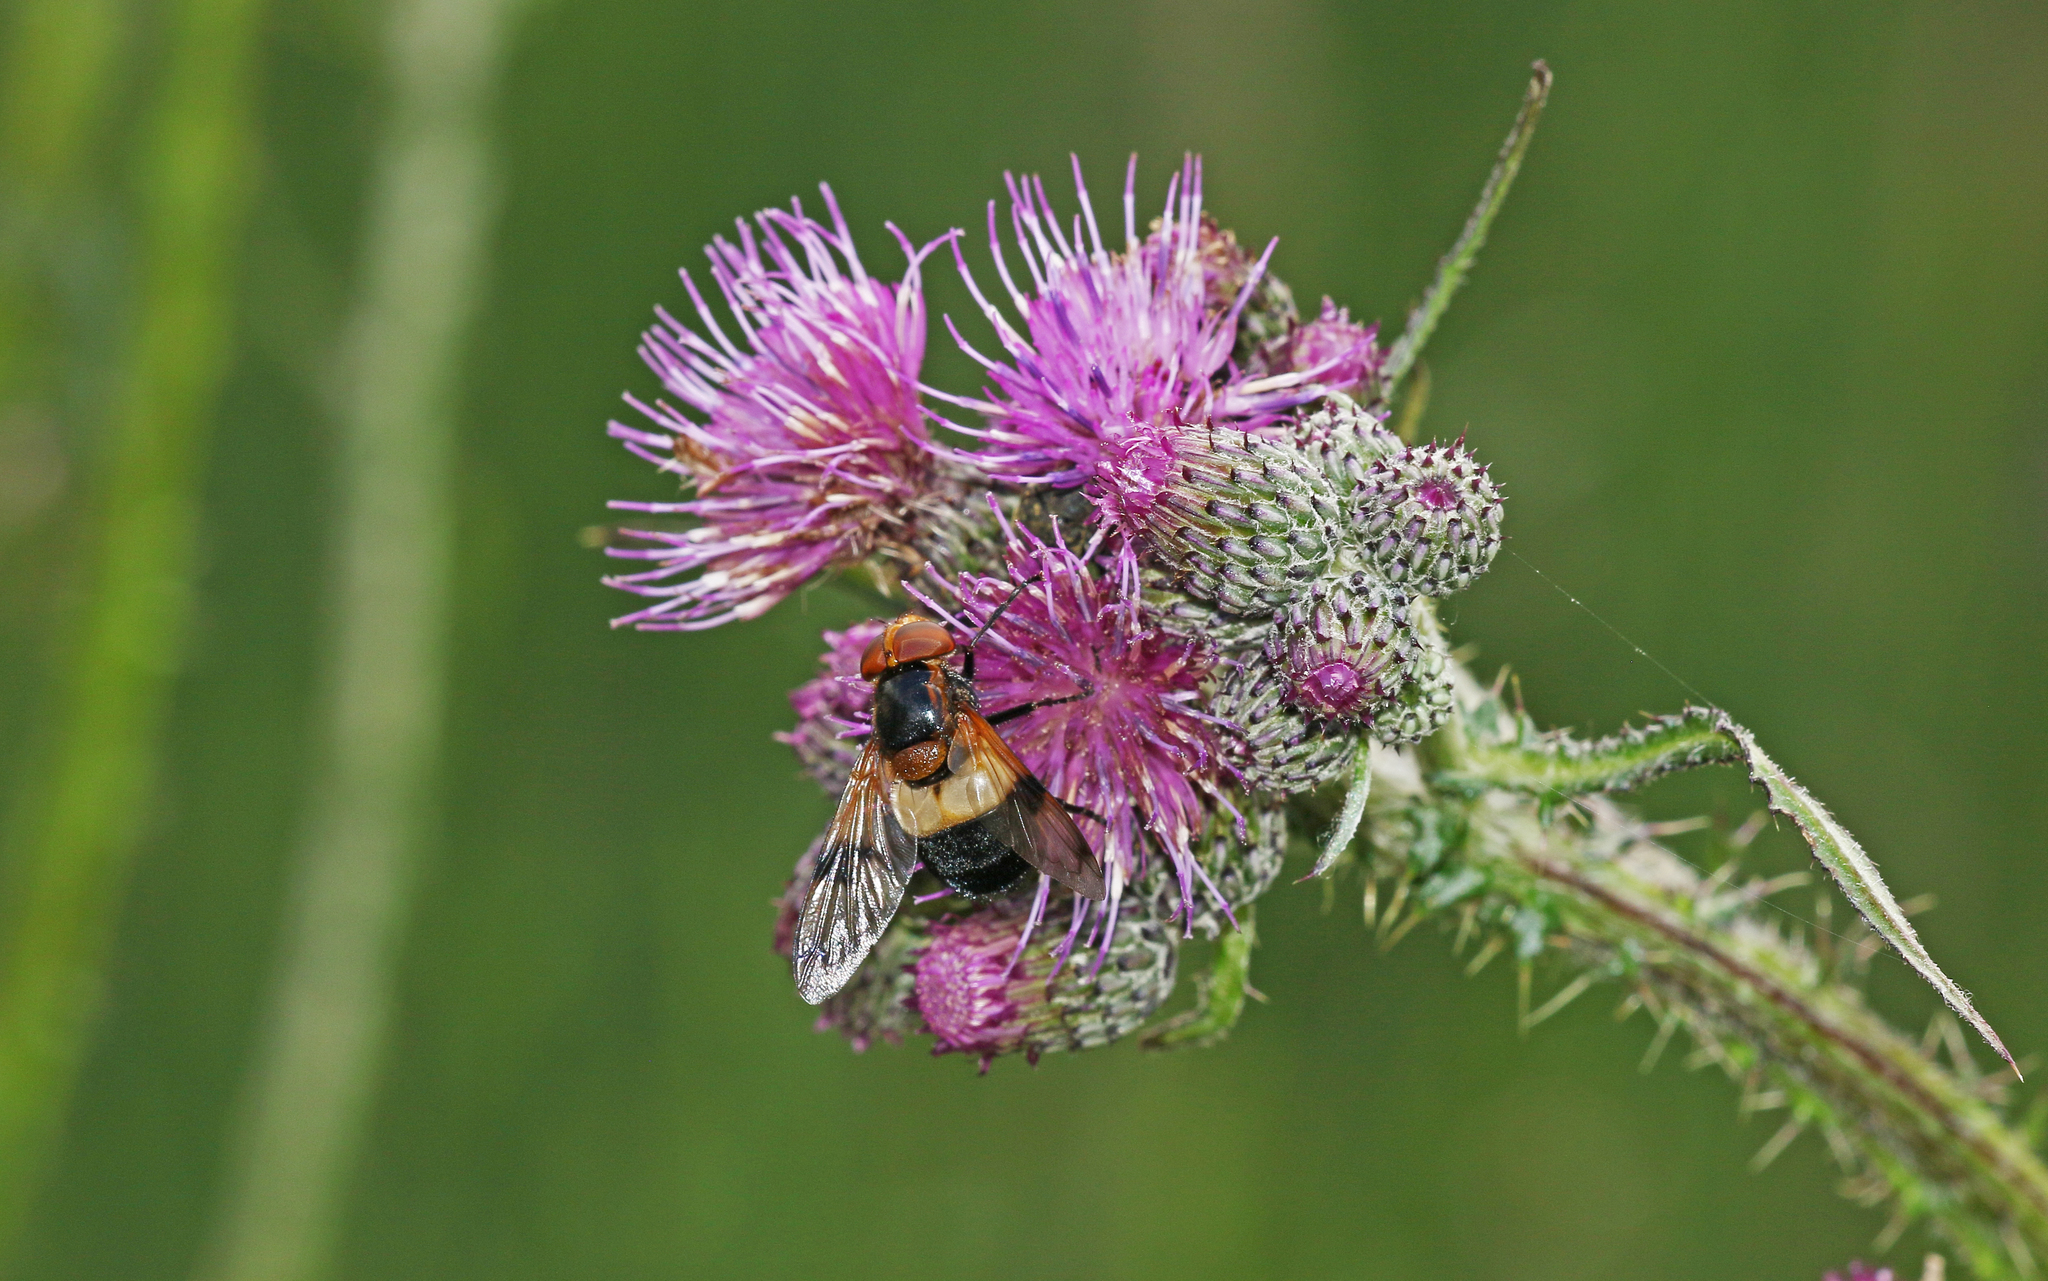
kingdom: Animalia
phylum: Arthropoda
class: Insecta
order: Diptera
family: Syrphidae
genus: Volucella
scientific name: Volucella pellucens
